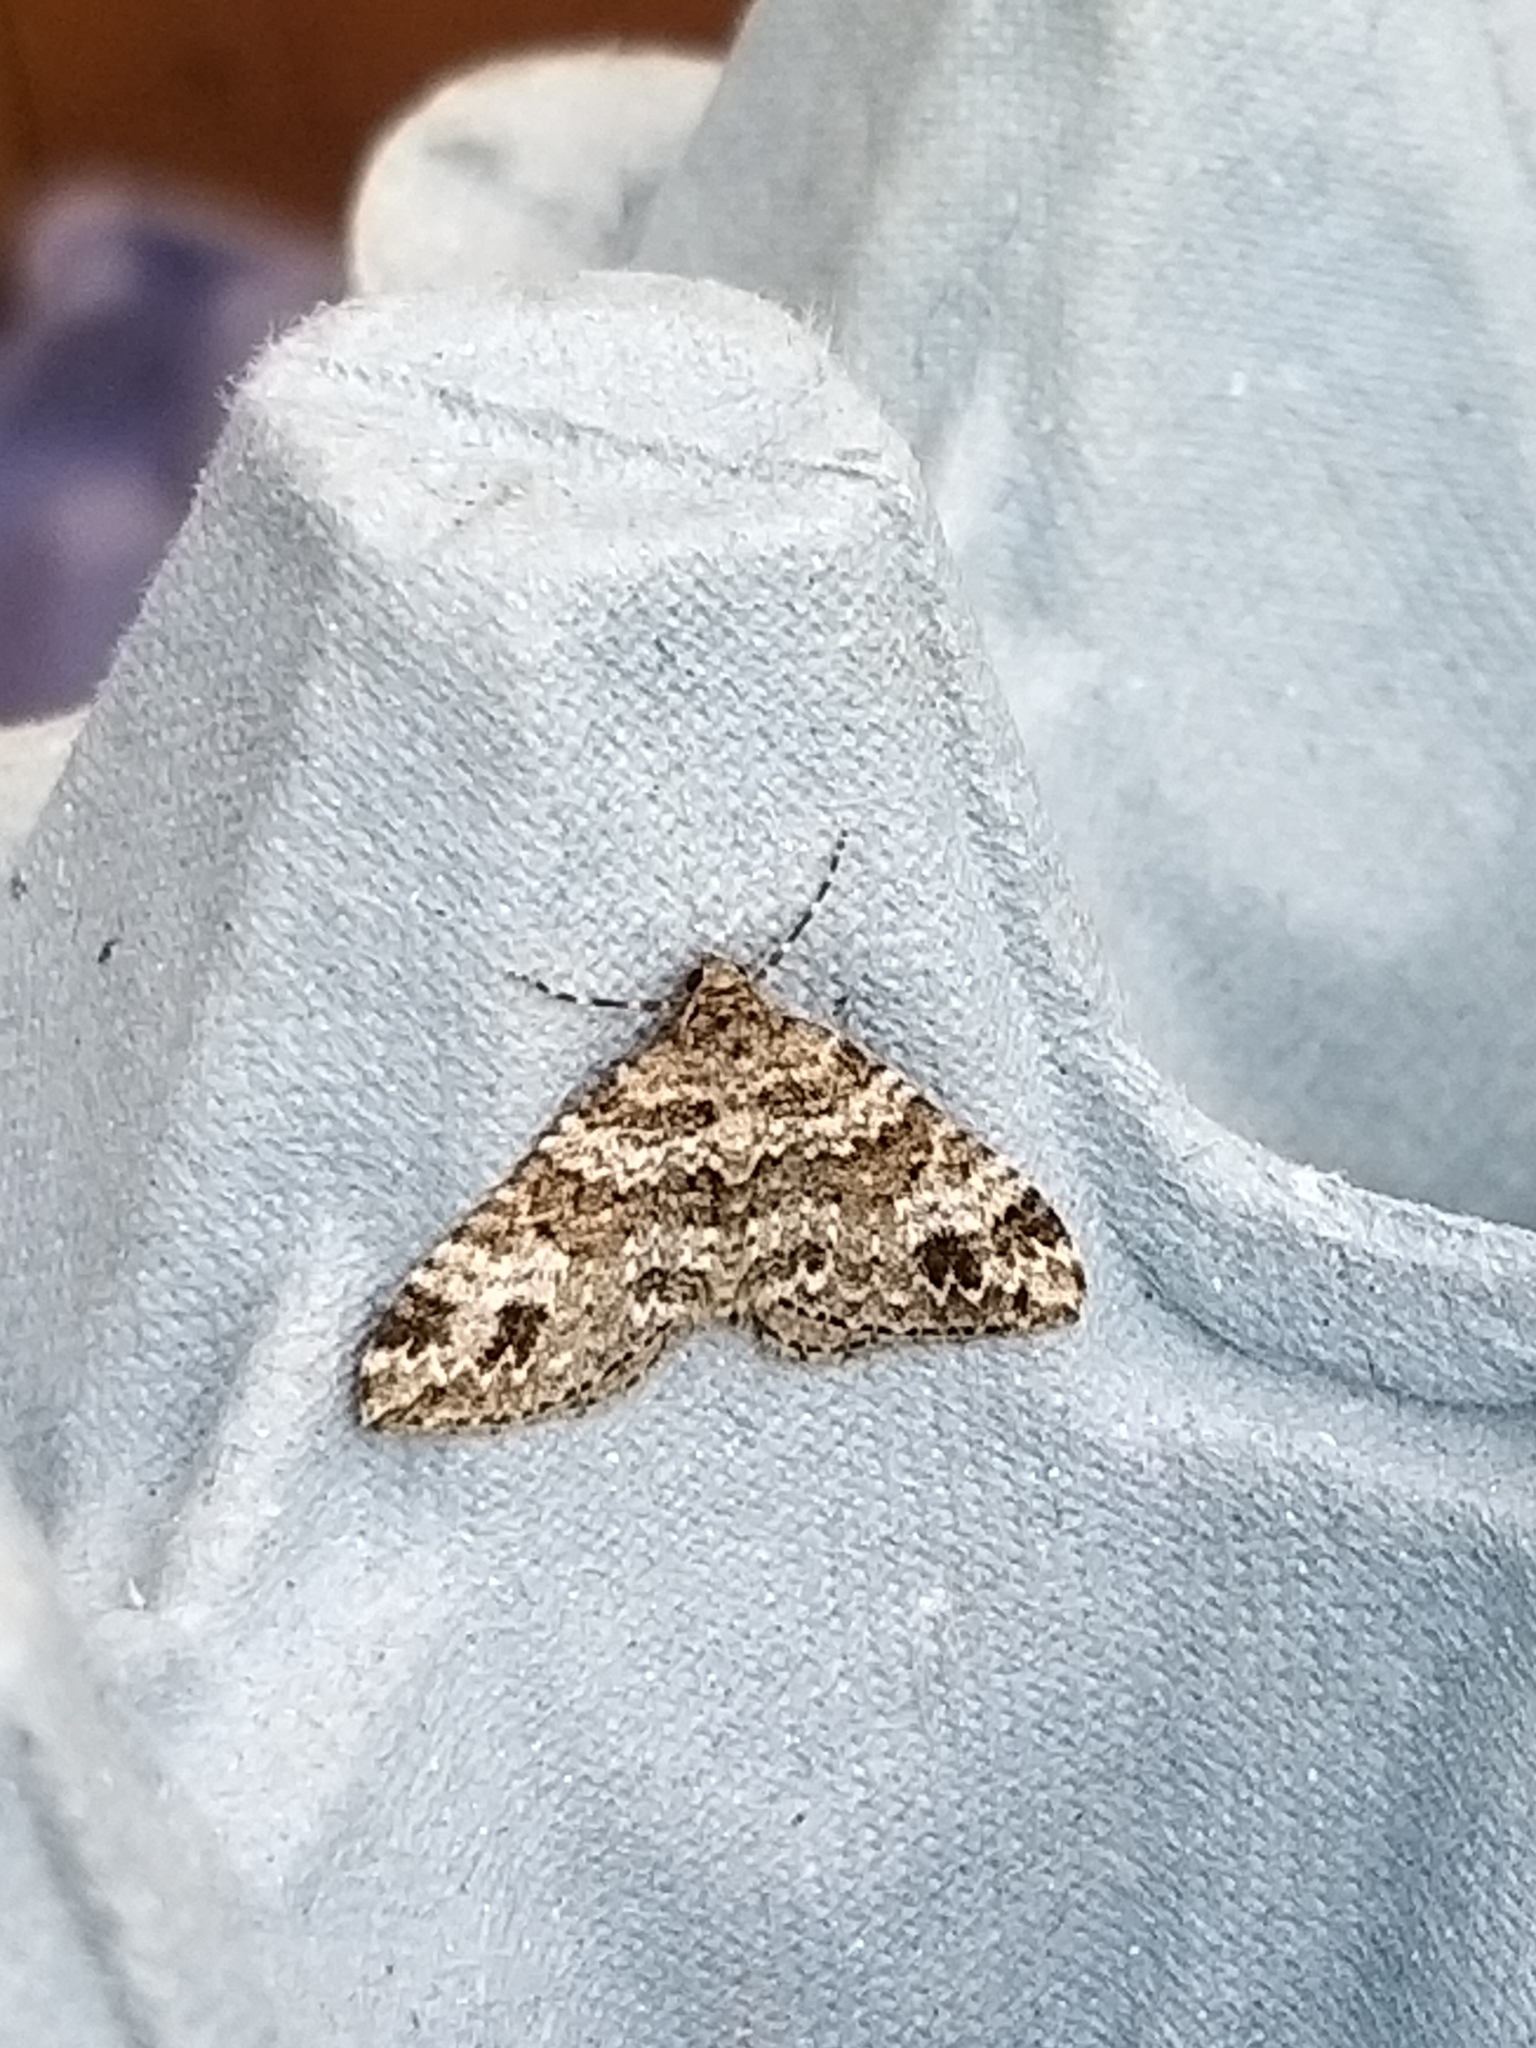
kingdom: Animalia
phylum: Arthropoda
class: Insecta
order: Lepidoptera
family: Geometridae
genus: Perizoma
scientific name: Perizoma didymata
